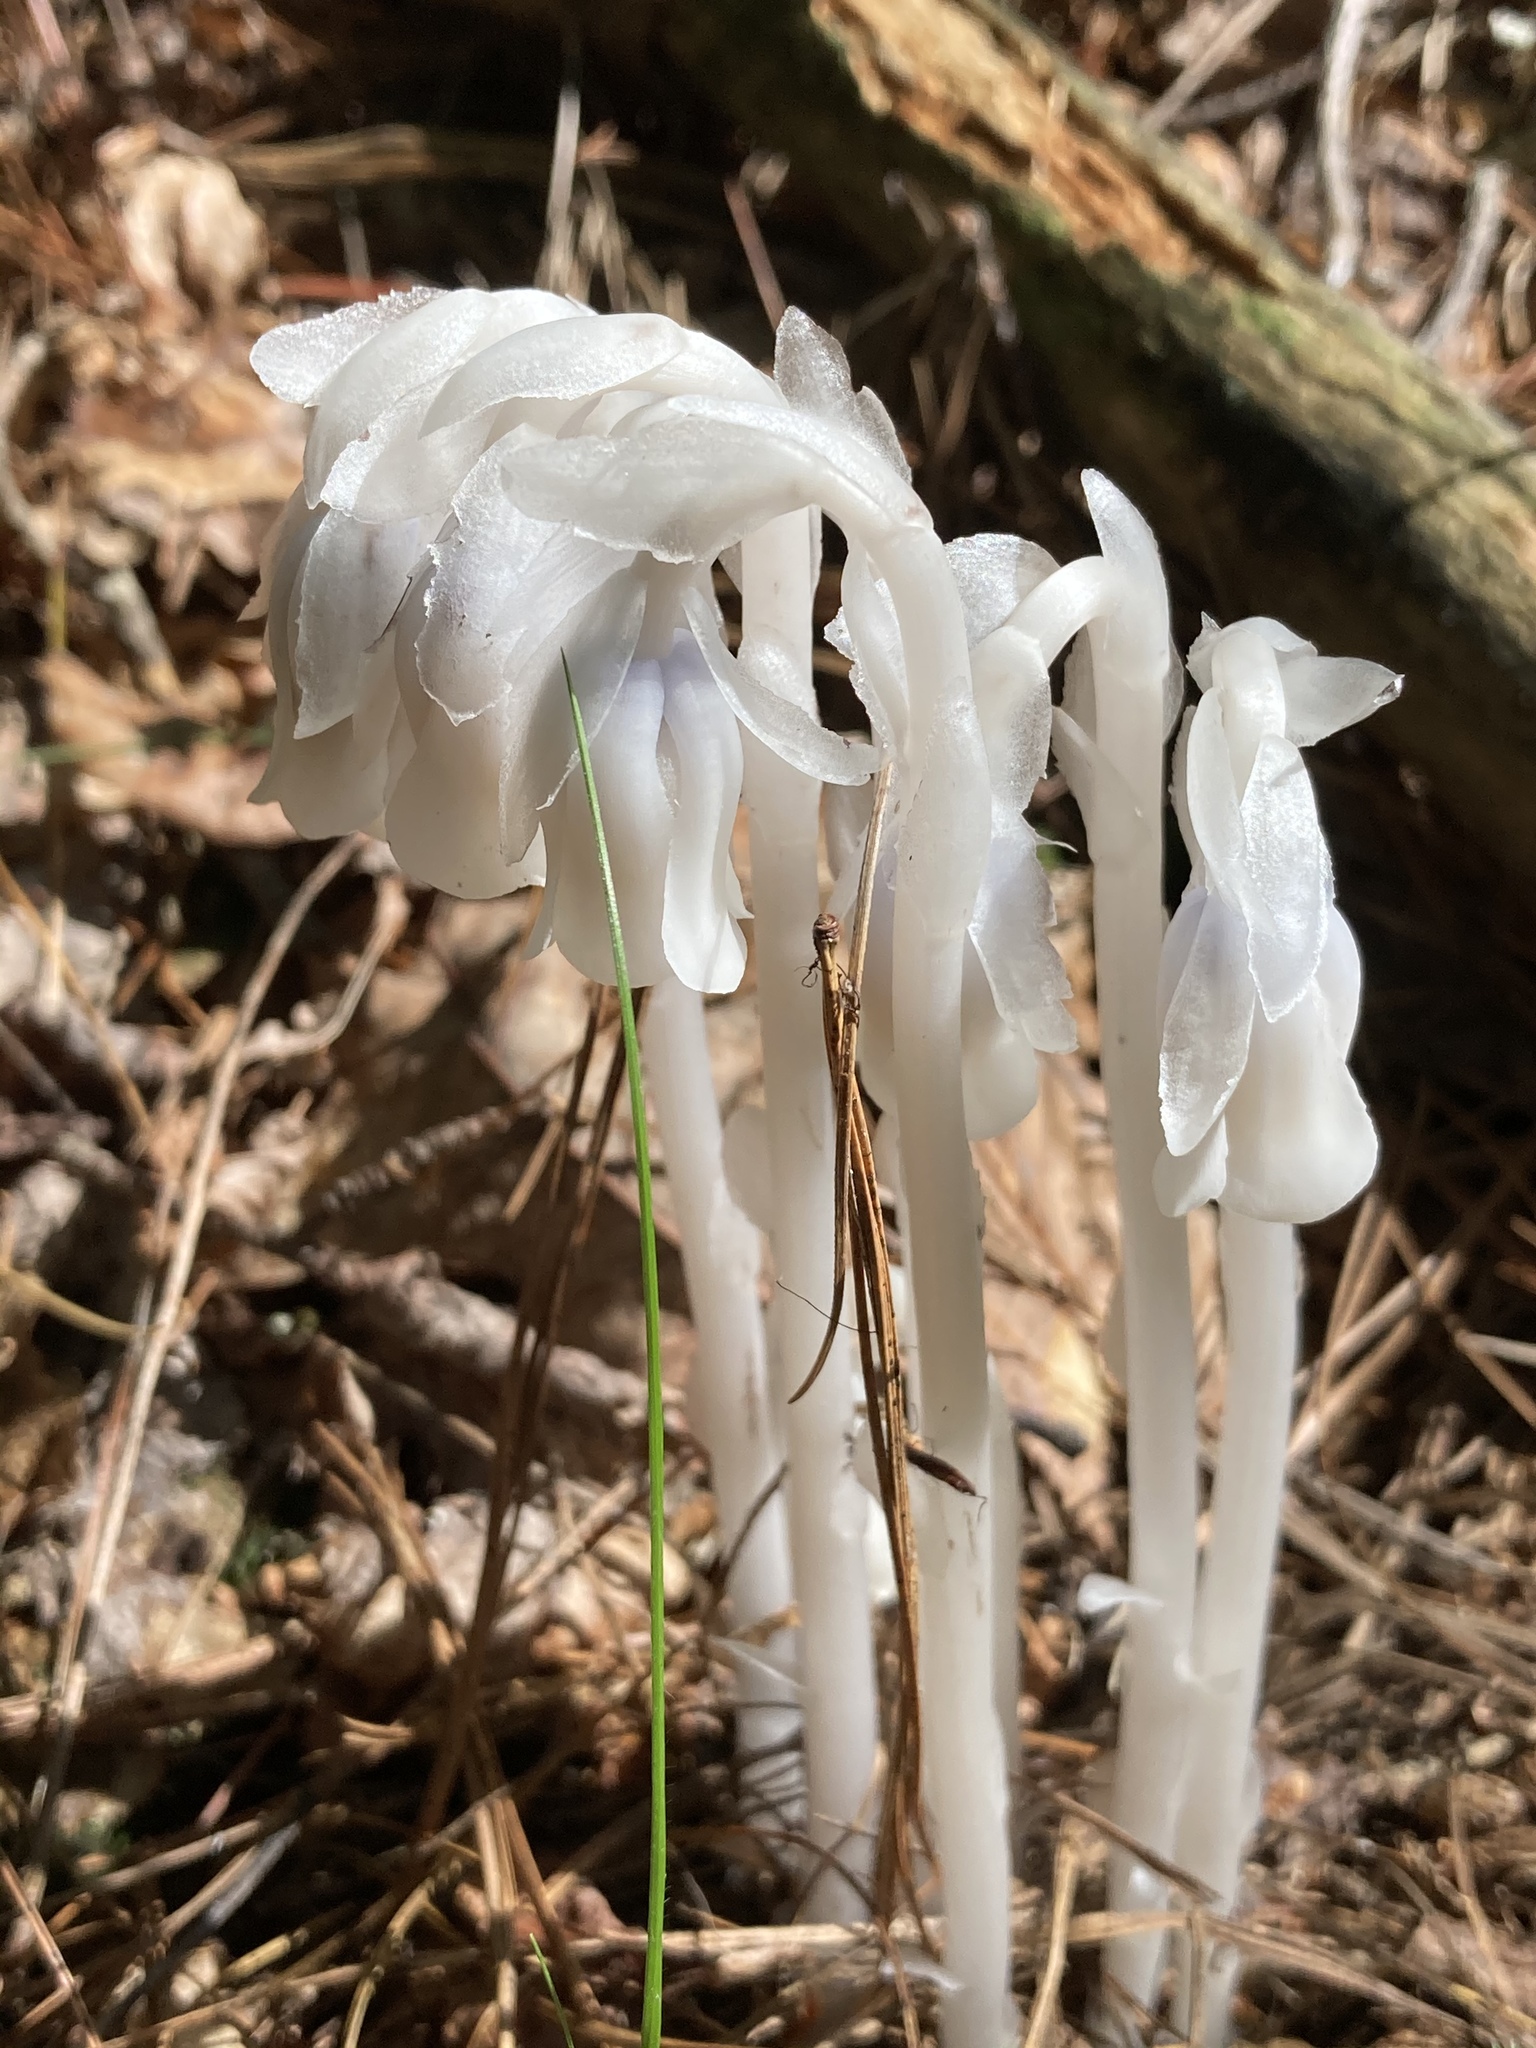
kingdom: Plantae
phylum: Tracheophyta
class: Magnoliopsida
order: Ericales
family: Ericaceae
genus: Monotropa
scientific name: Monotropa uniflora
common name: Convulsion root
